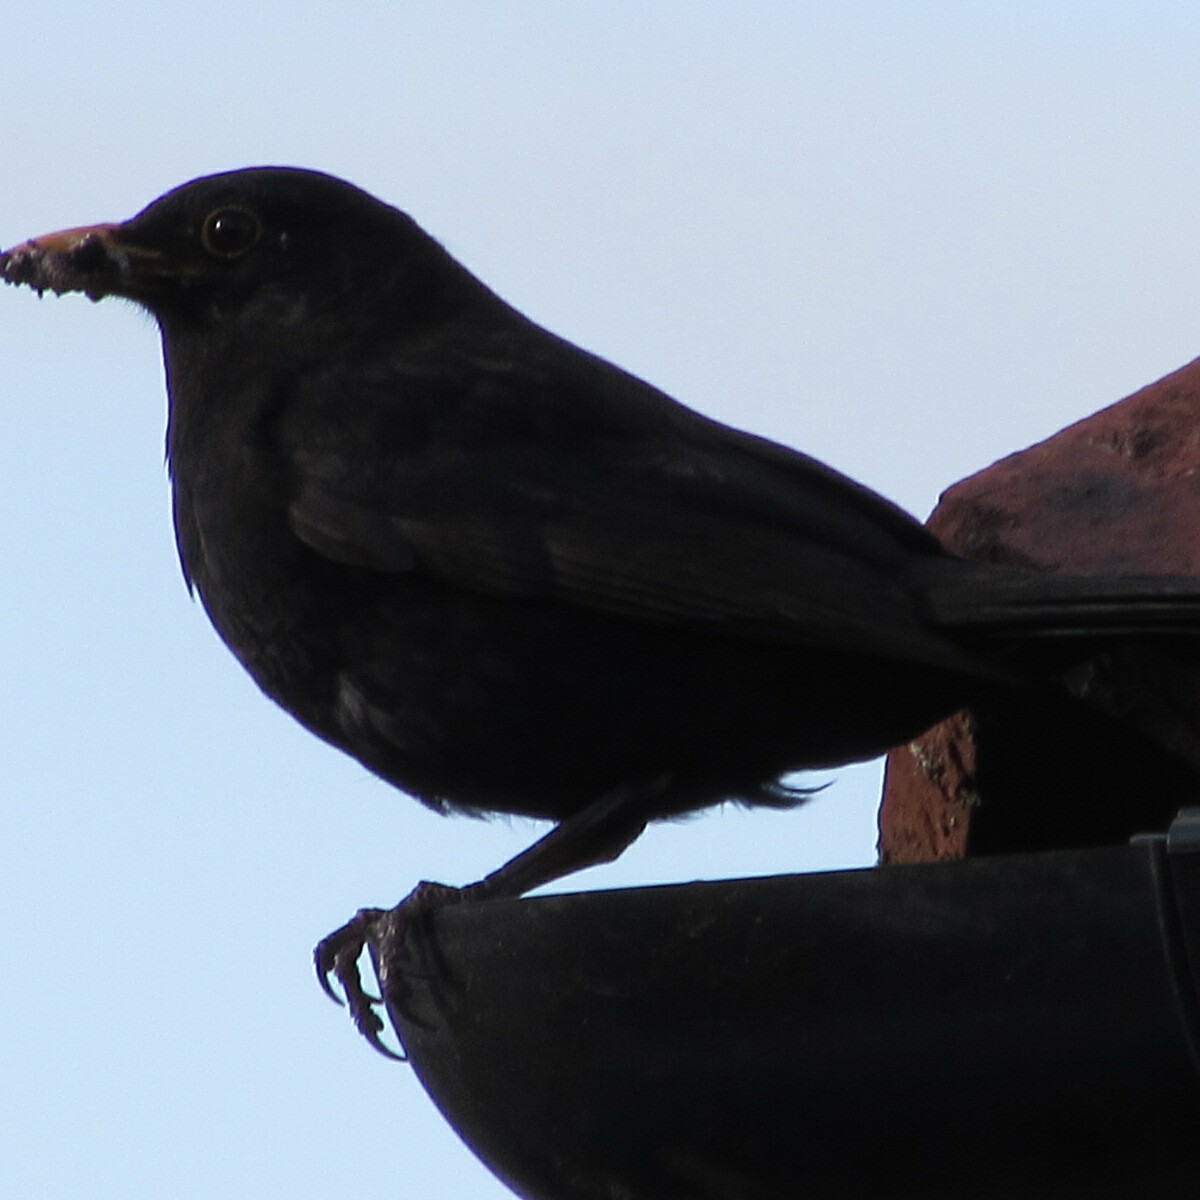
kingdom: Animalia
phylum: Chordata
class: Aves
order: Passeriformes
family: Turdidae
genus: Turdus
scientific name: Turdus merula
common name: Common blackbird
